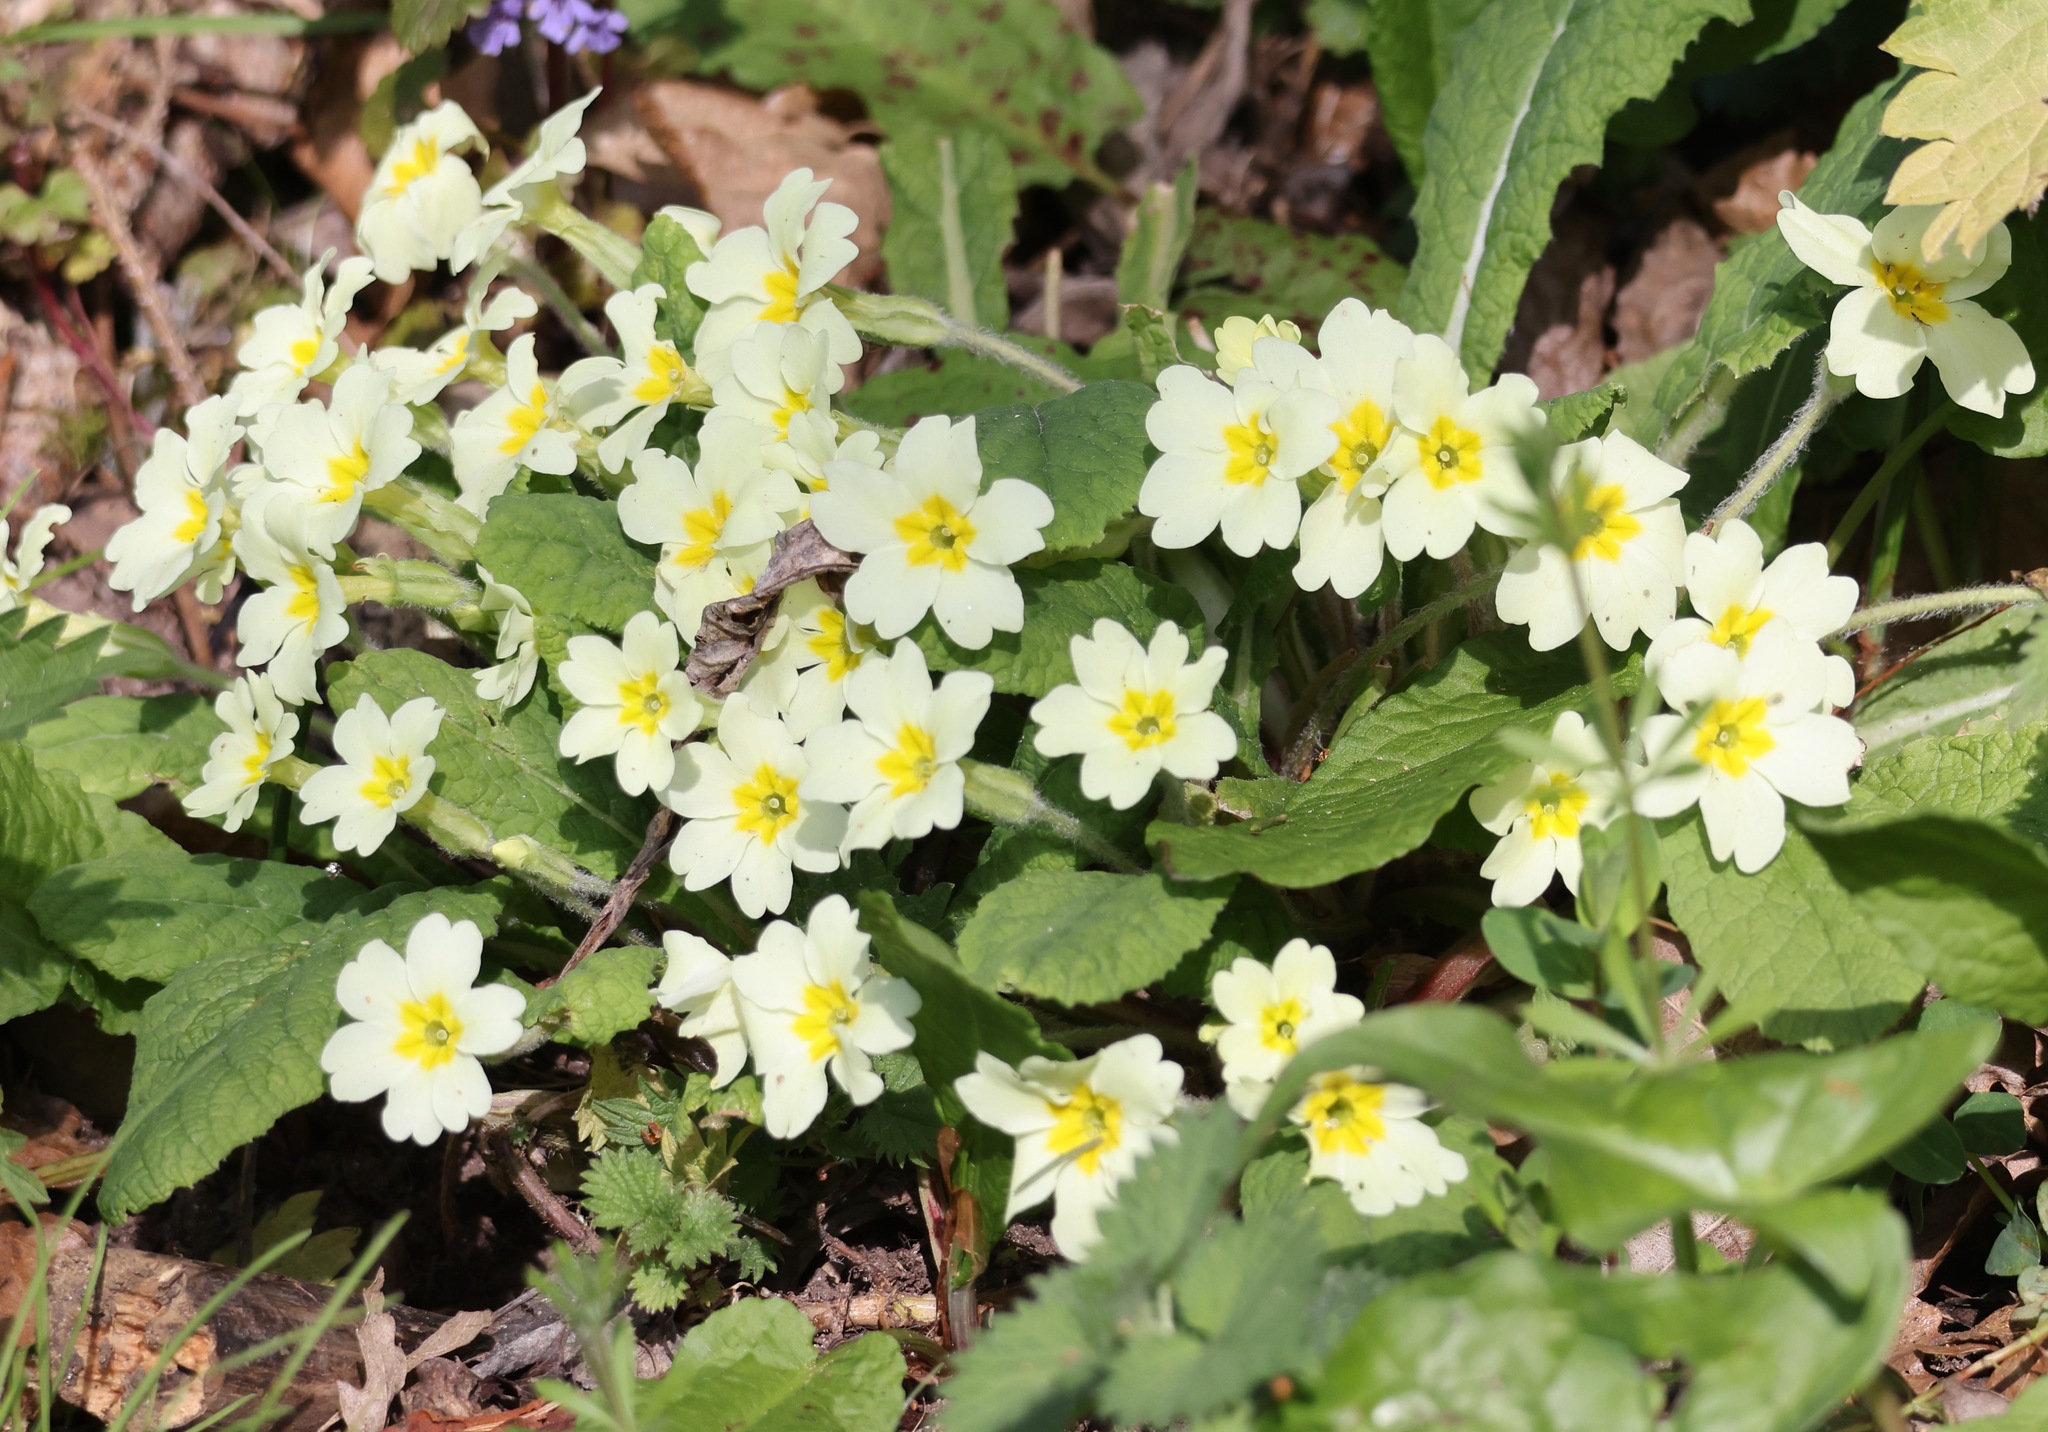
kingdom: Plantae
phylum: Tracheophyta
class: Magnoliopsida
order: Ericales
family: Primulaceae
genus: Primula
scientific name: Primula vulgaris
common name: Primrose
